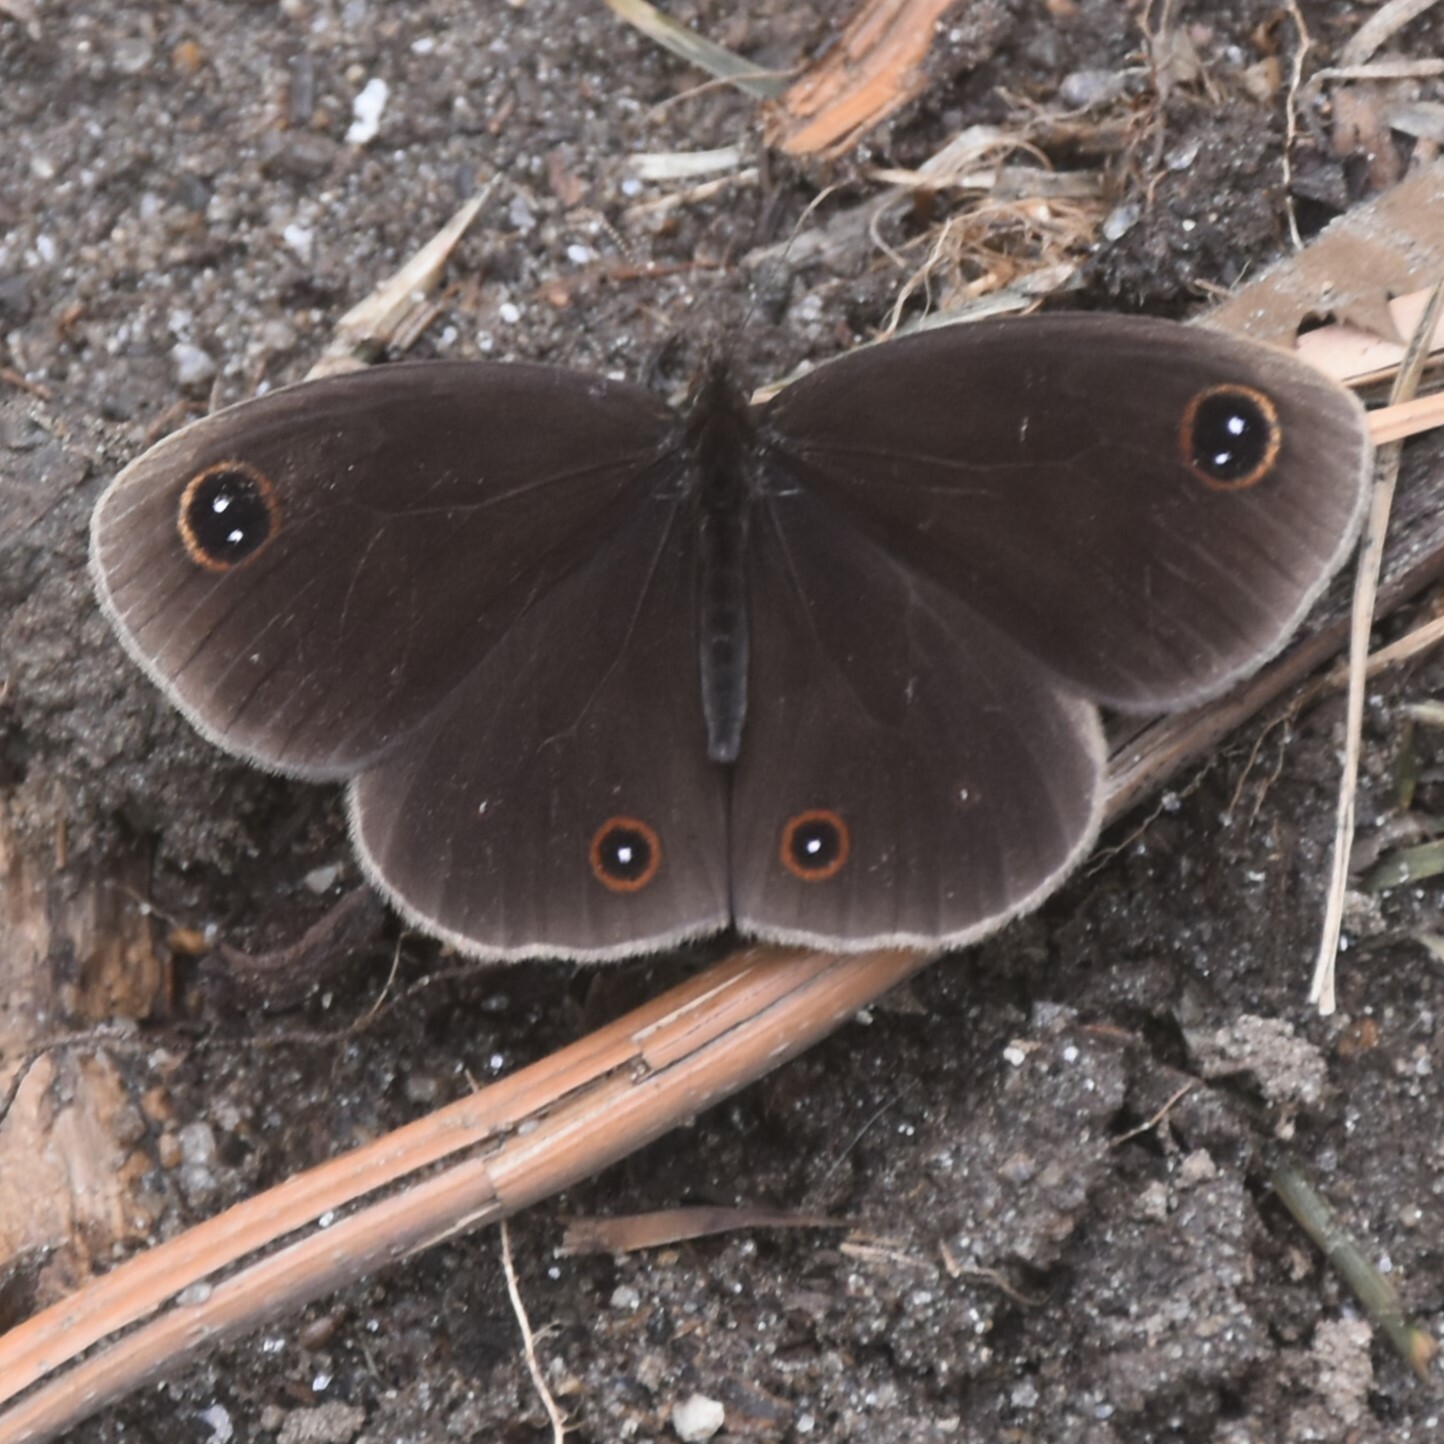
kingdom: Animalia
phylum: Arthropoda
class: Insecta
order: Lepidoptera
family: Nymphalidae
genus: Callerebia
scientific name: Callerebia nirmala
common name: Common argus
